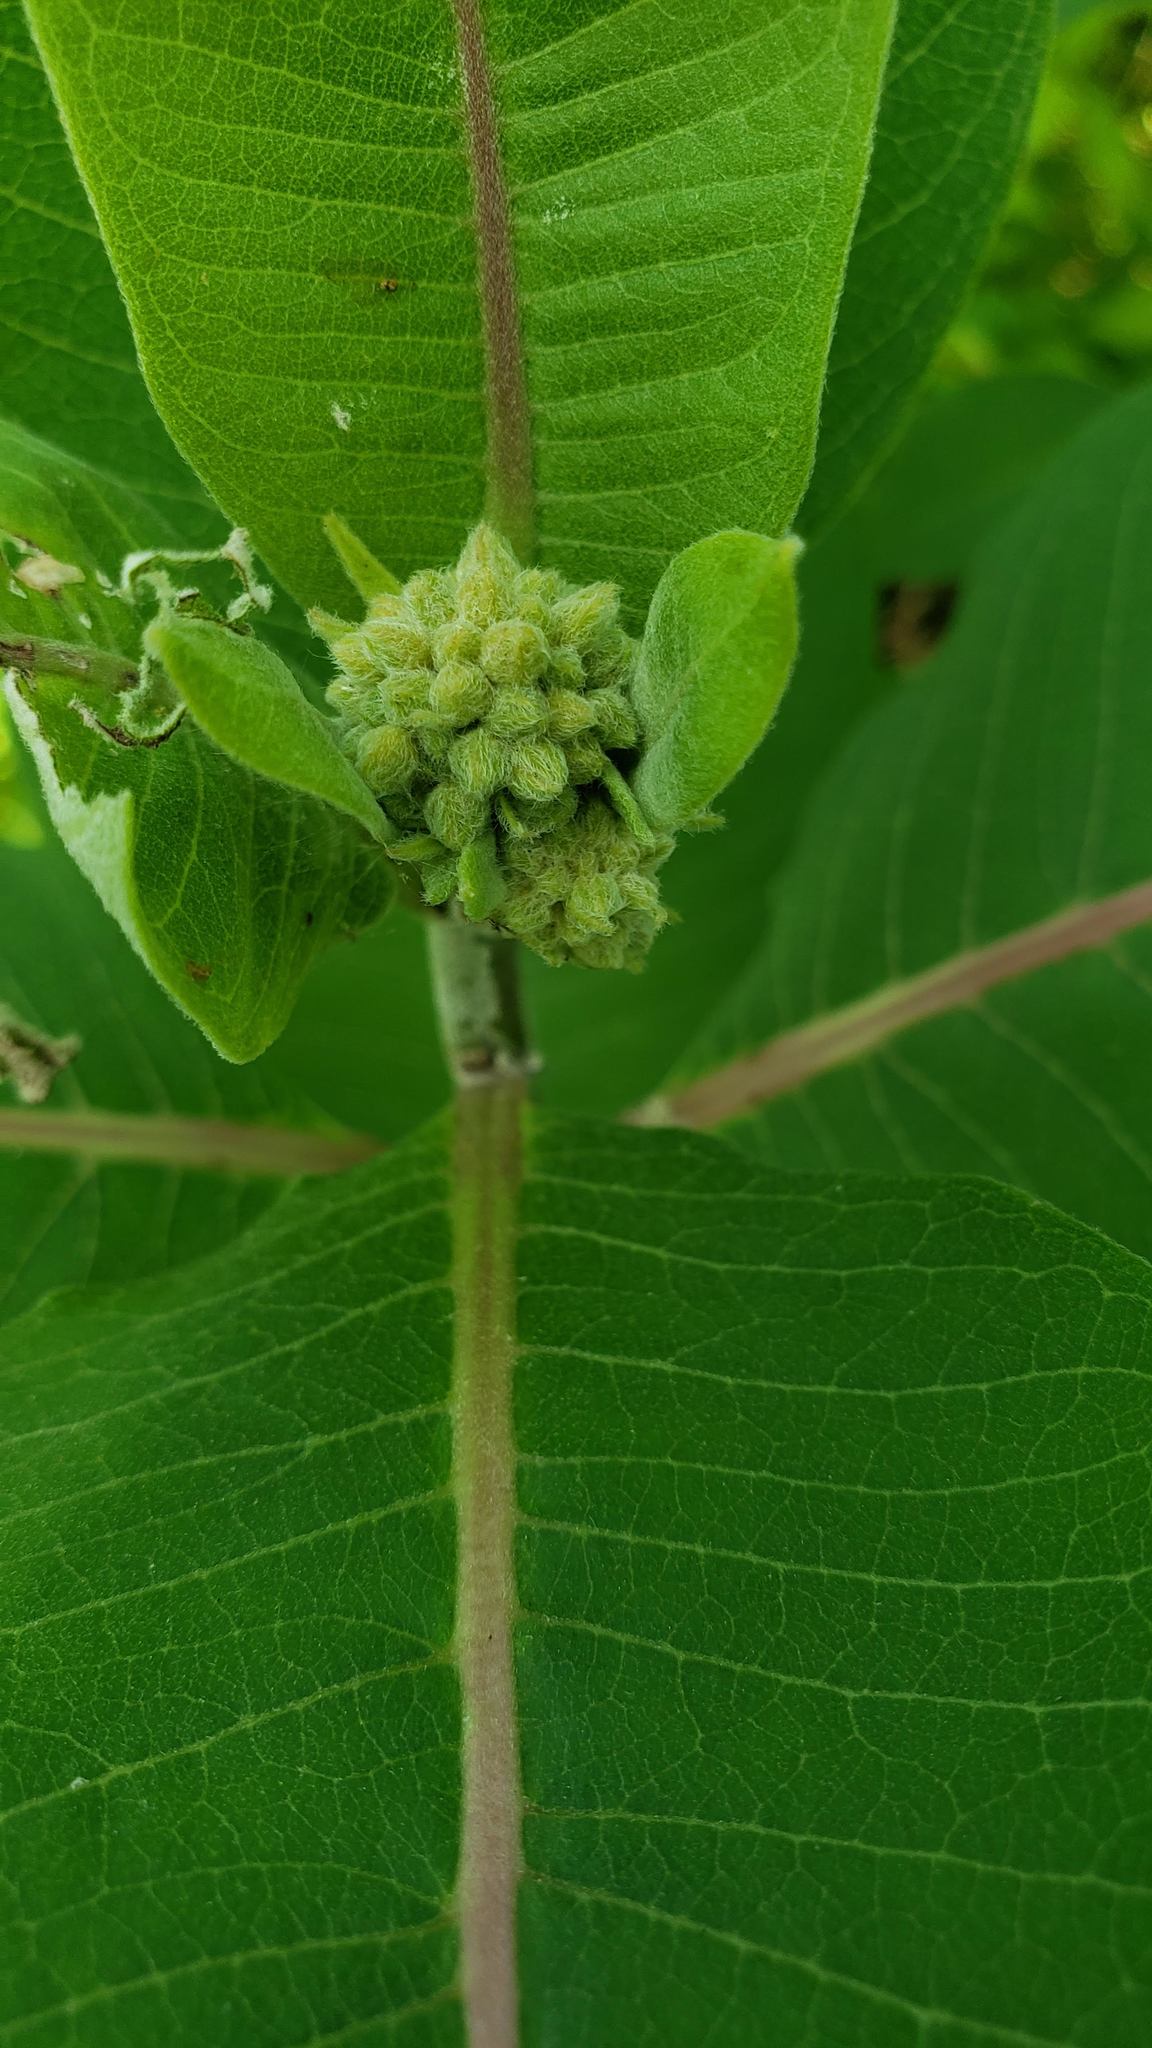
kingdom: Plantae
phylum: Tracheophyta
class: Magnoliopsida
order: Gentianales
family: Apocynaceae
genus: Asclepias
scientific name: Asclepias syriaca
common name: Common milkweed
